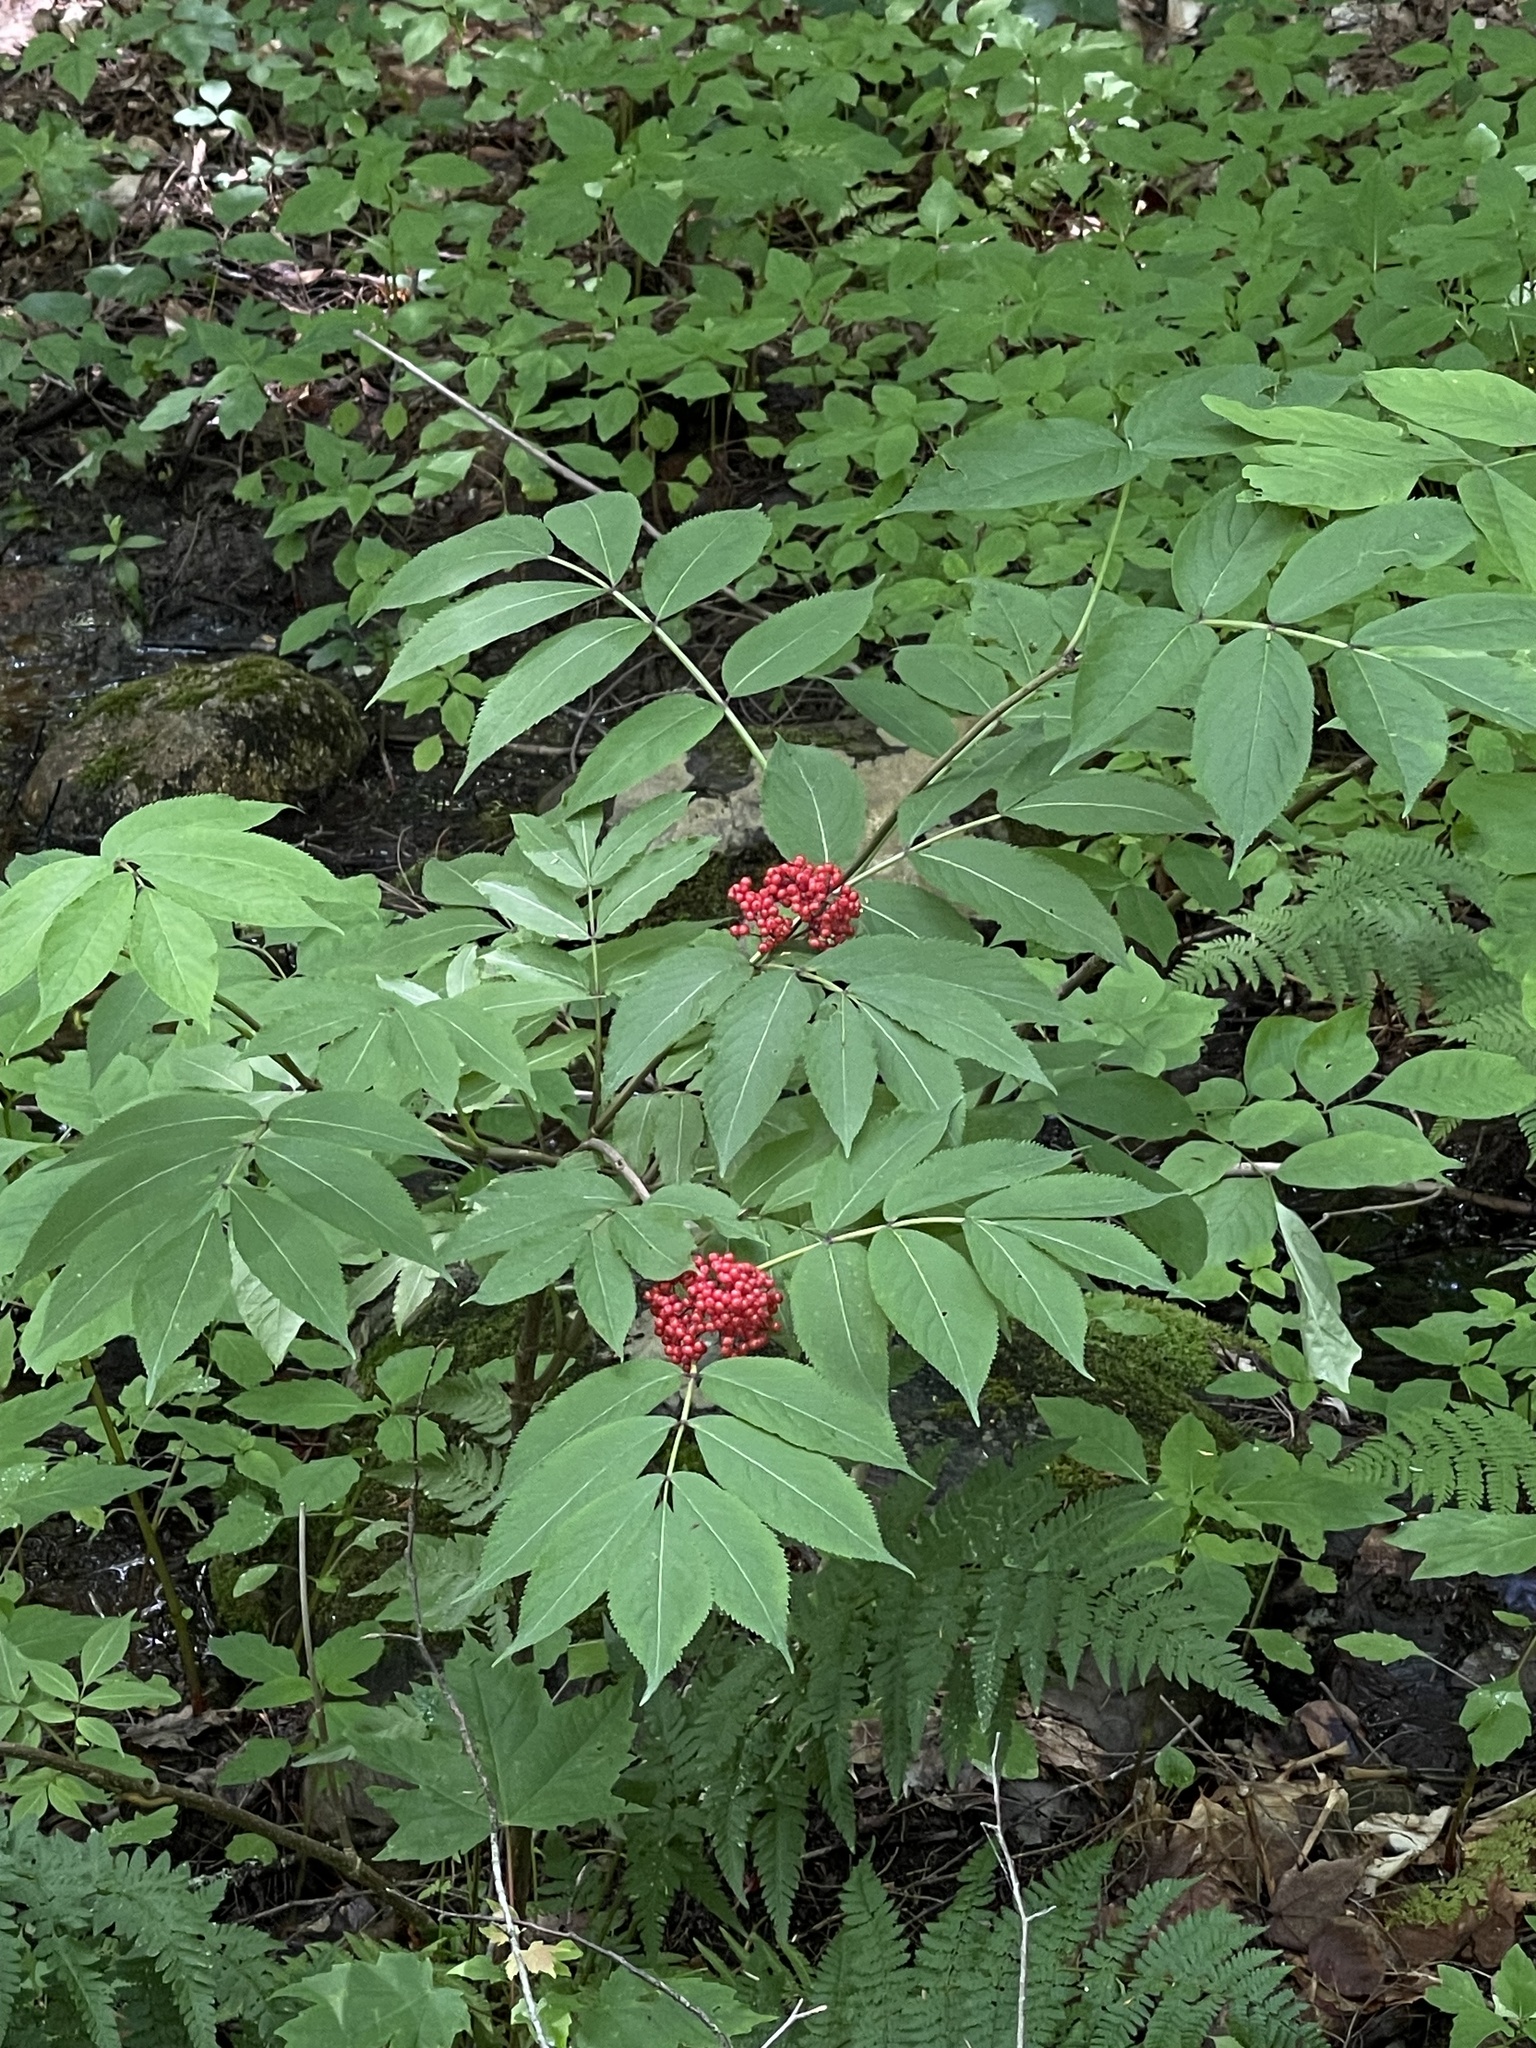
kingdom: Plantae
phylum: Tracheophyta
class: Magnoliopsida
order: Dipsacales
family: Viburnaceae
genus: Sambucus
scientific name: Sambucus racemosa
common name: Red-berried elder
